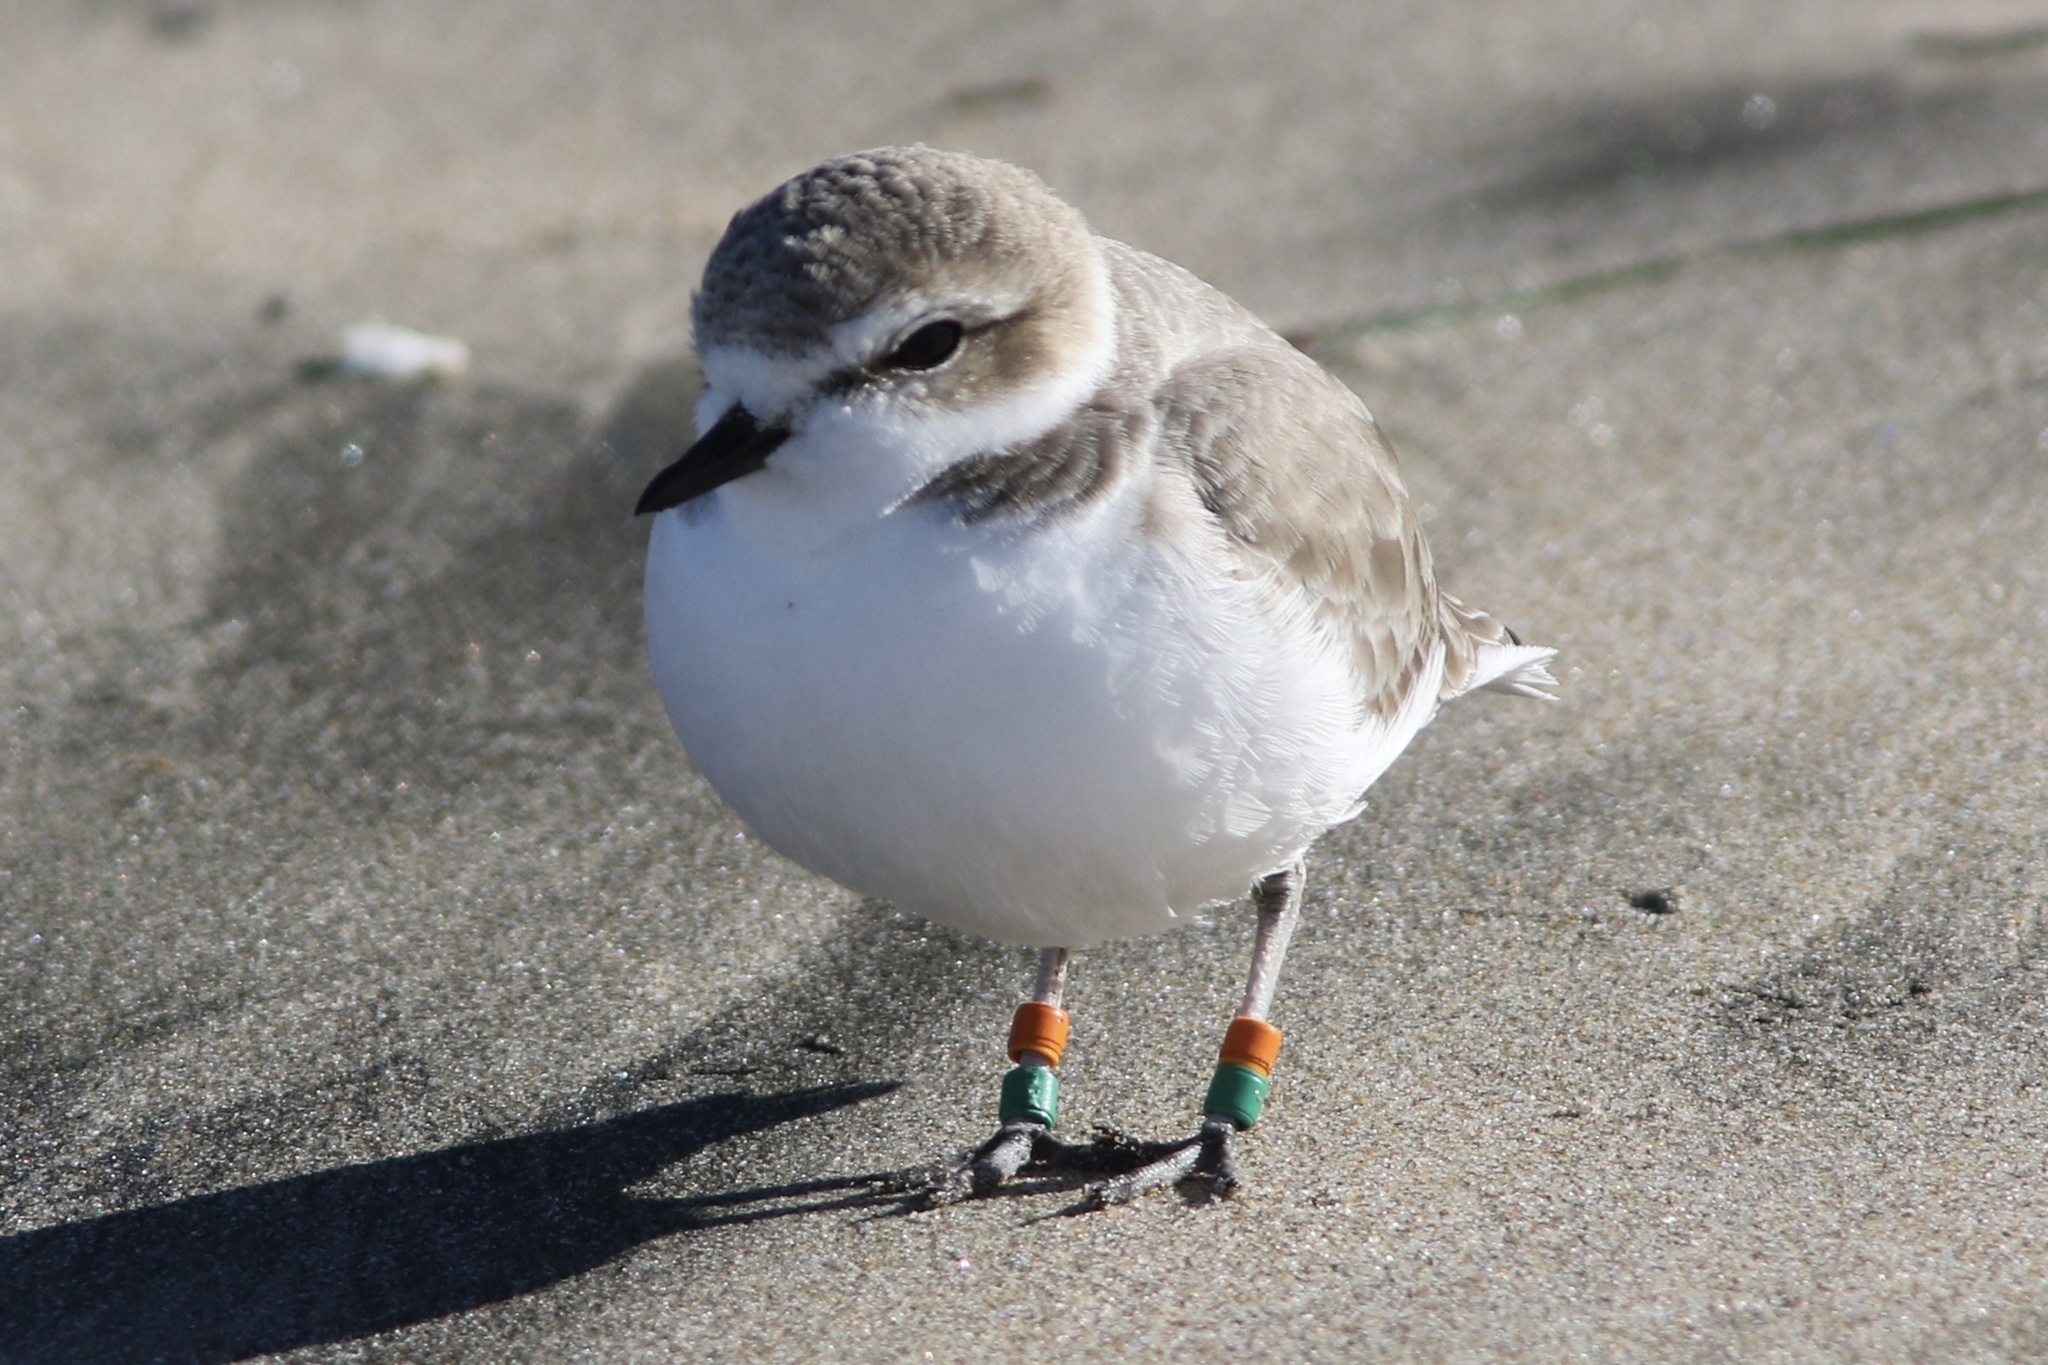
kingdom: Animalia
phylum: Chordata
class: Aves
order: Charadriiformes
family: Charadriidae
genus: Anarhynchus
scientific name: Anarhynchus
